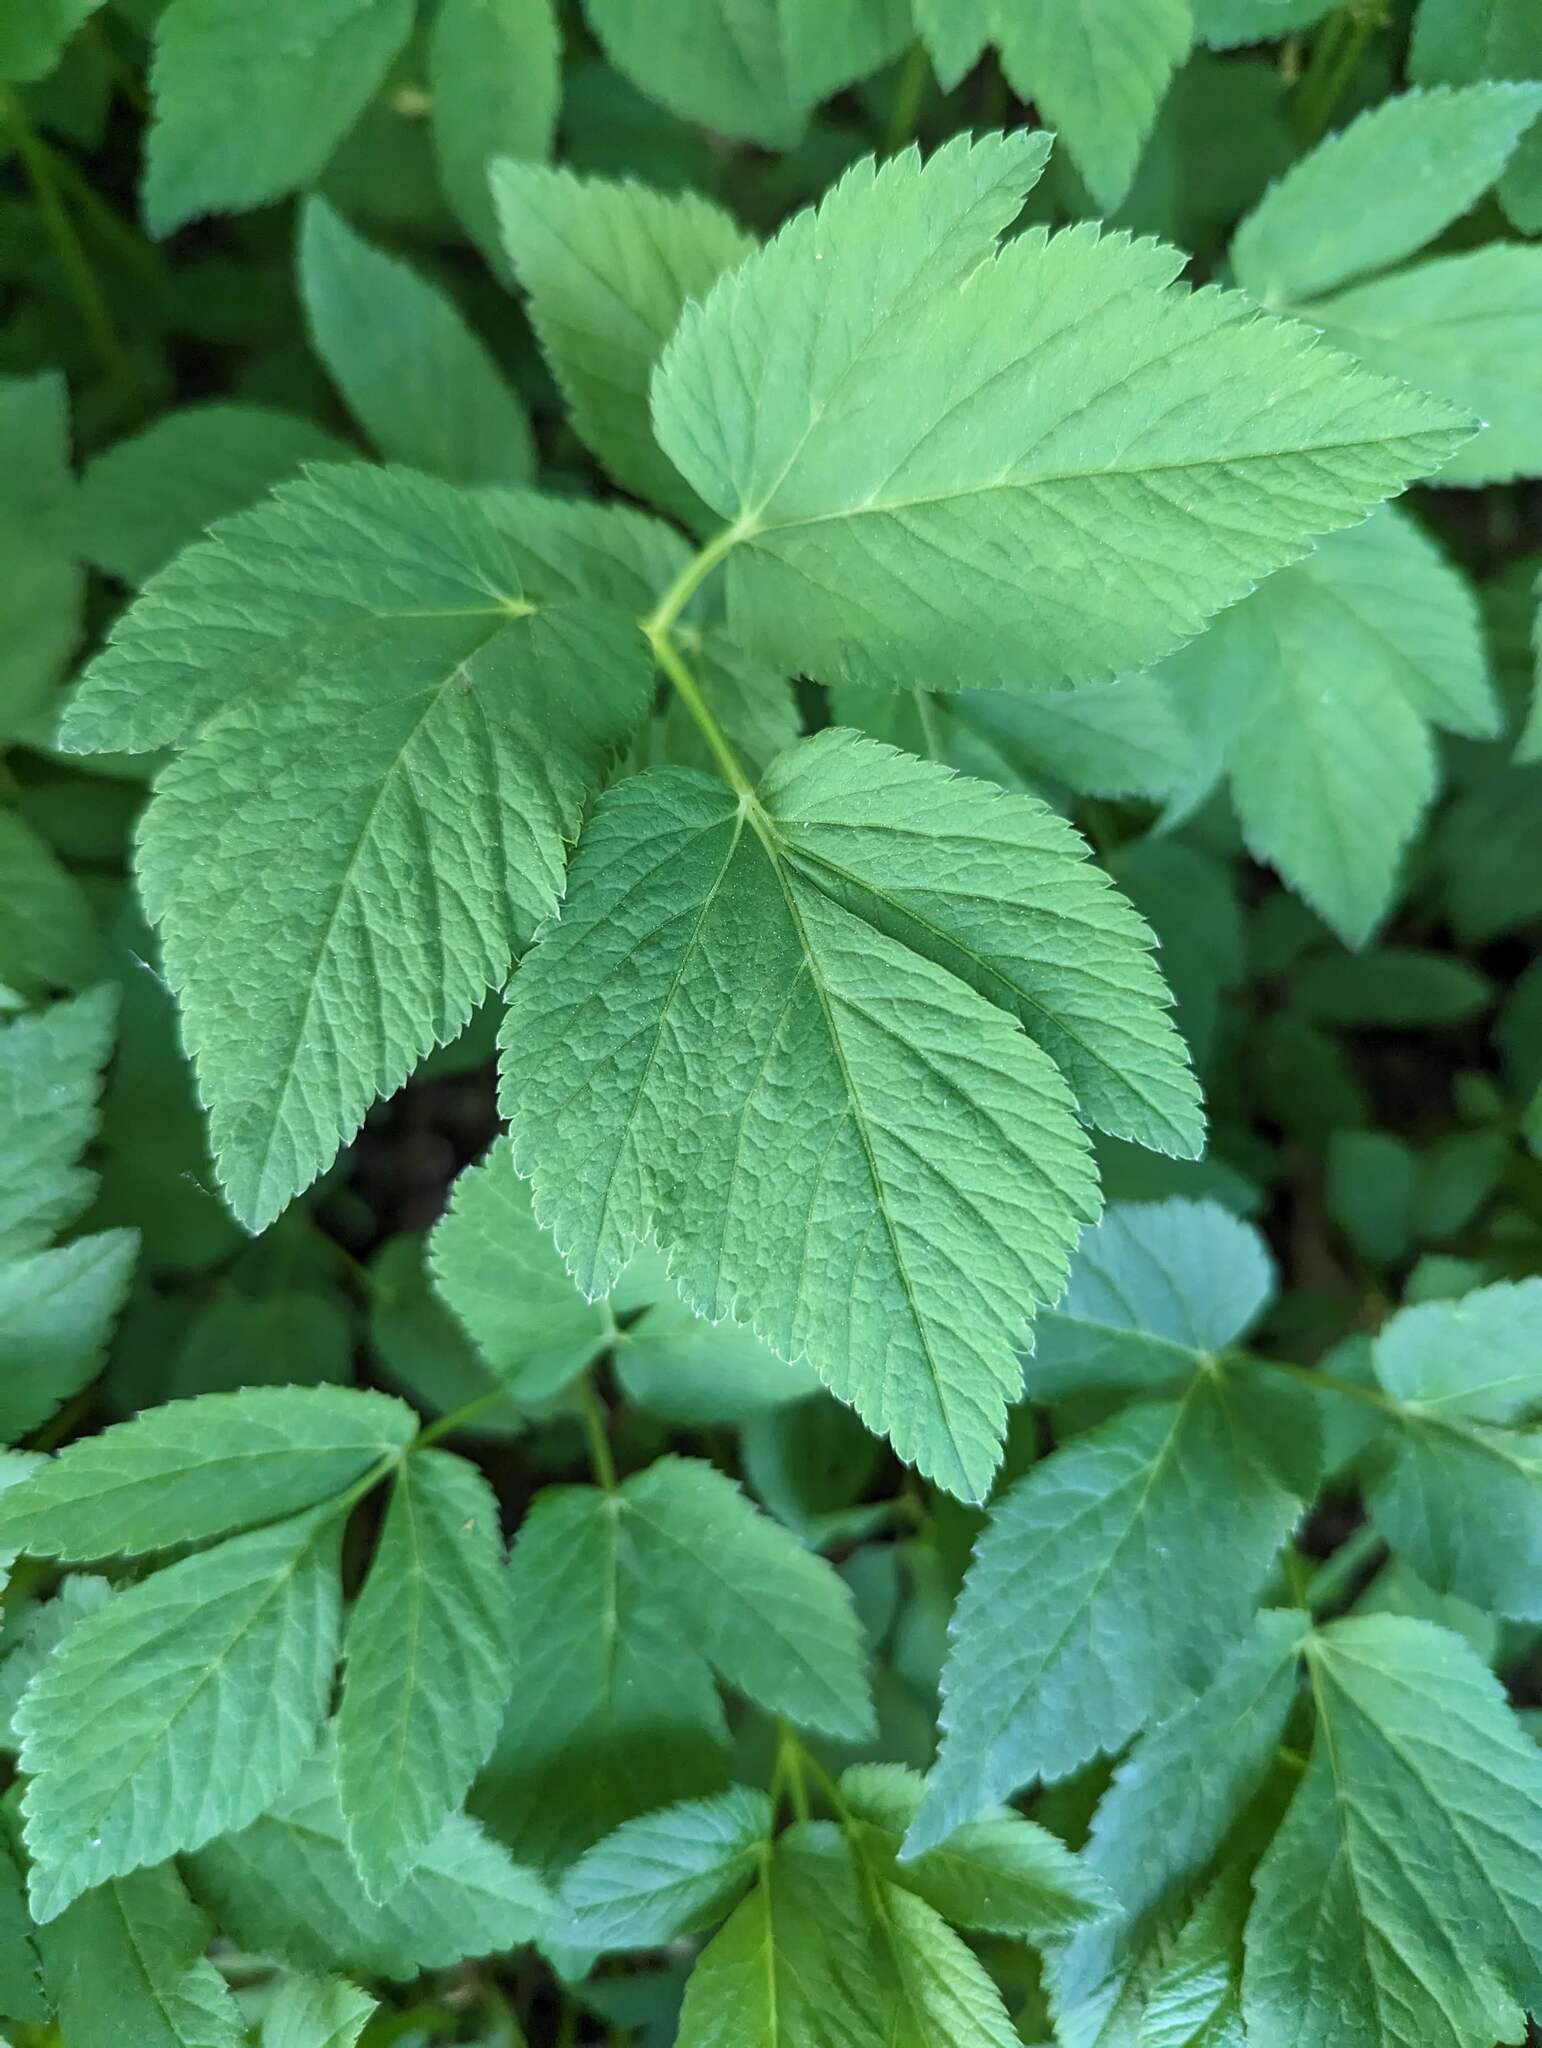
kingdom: Plantae
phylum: Tracheophyta
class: Magnoliopsida
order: Apiales
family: Apiaceae
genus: Aegopodium
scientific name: Aegopodium podagraria
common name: Ground-elder
